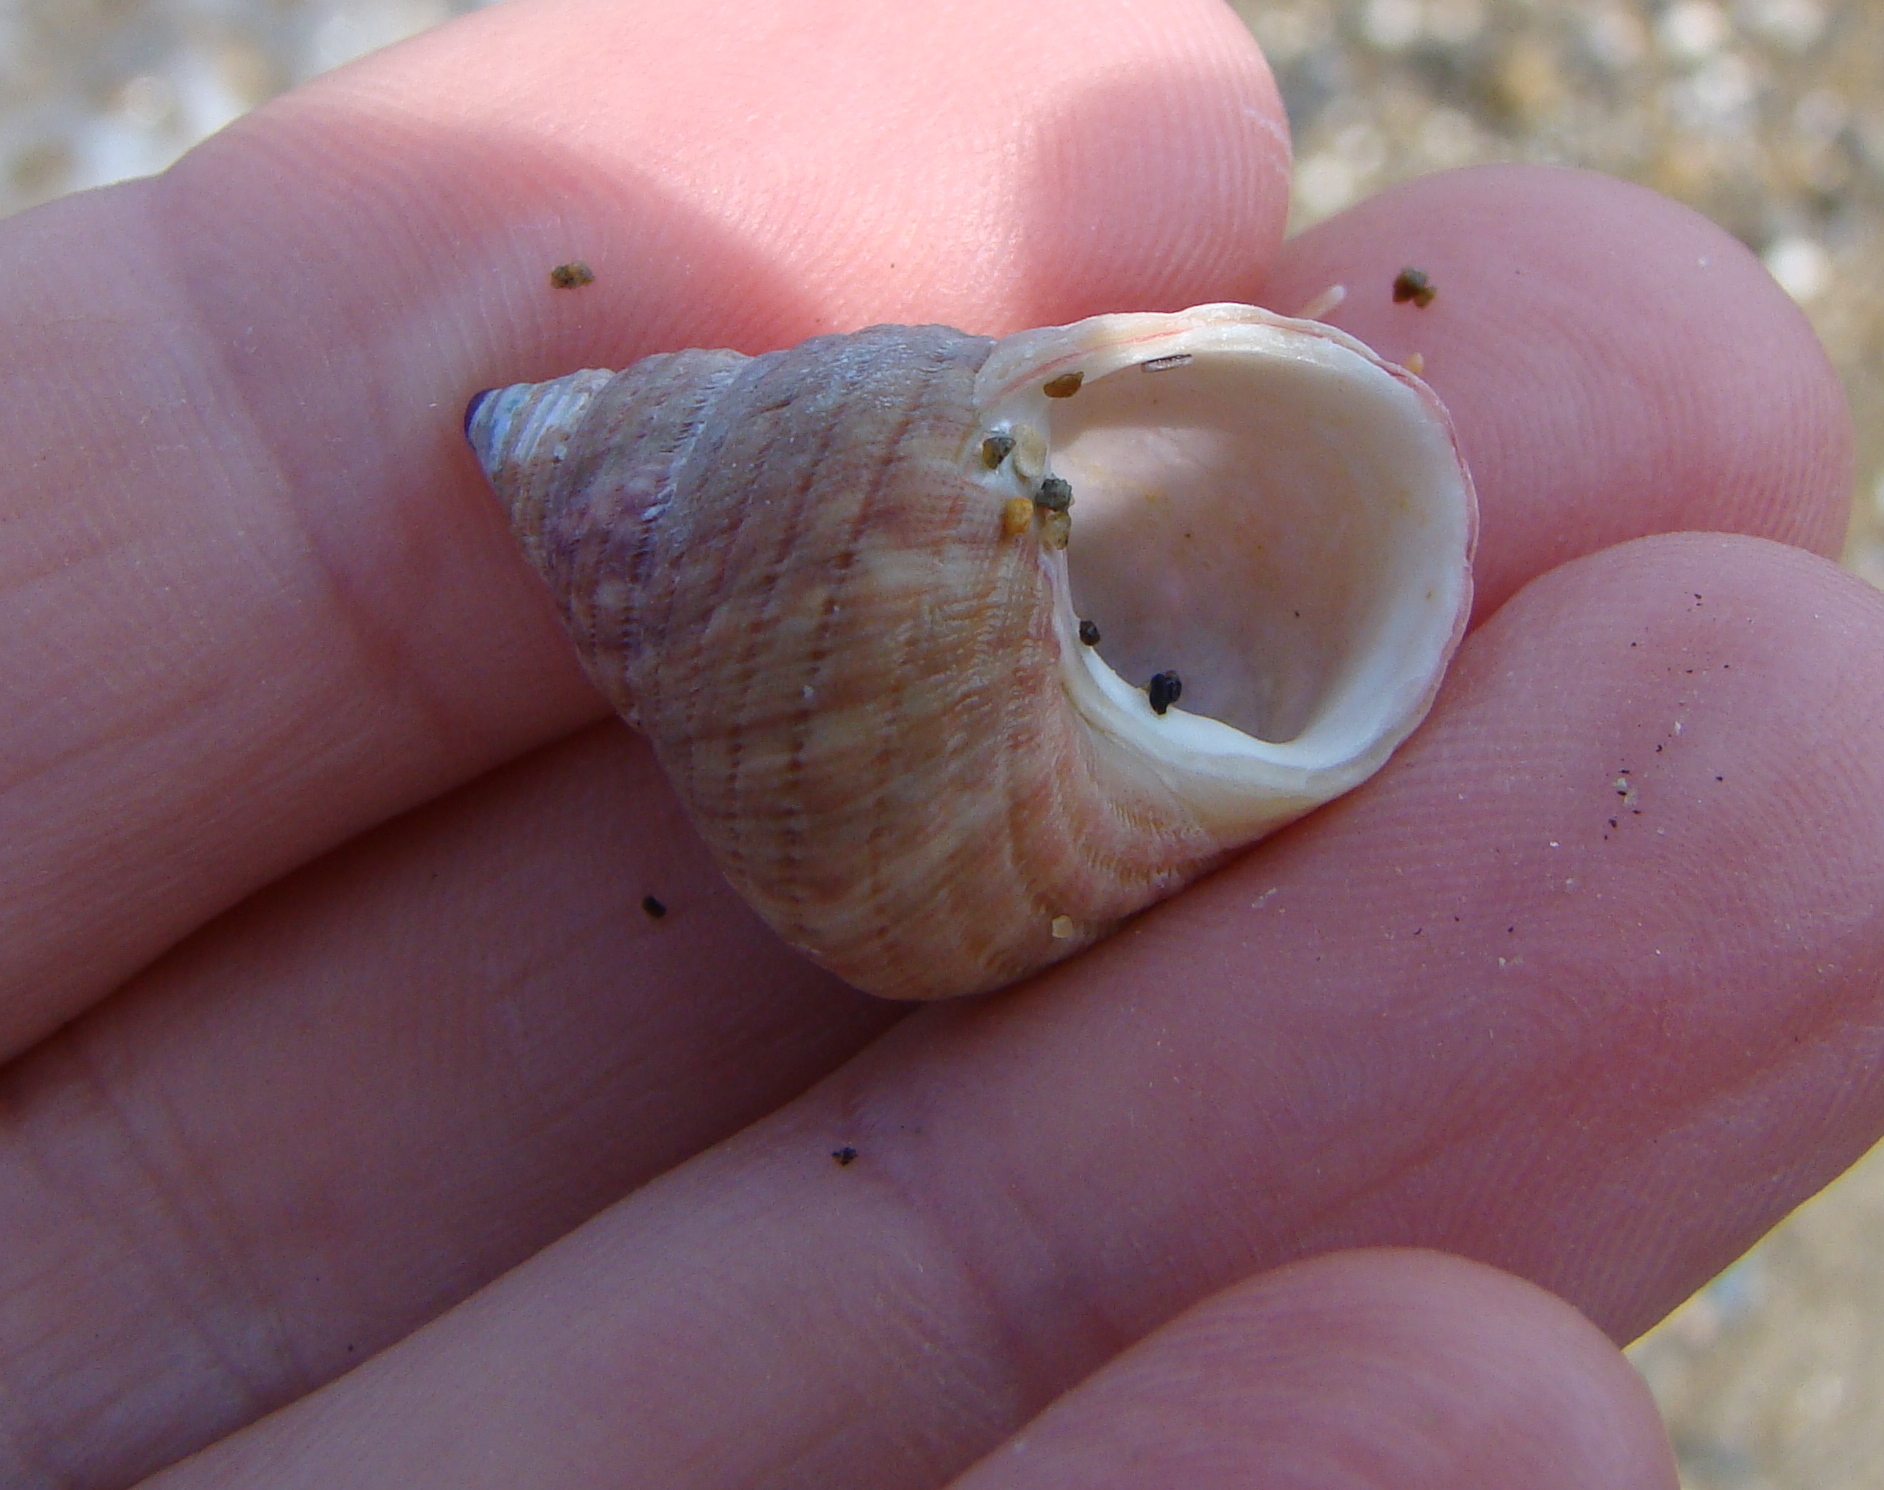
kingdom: Animalia
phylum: Mollusca
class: Gastropoda
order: Trochida
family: Trochidae
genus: Micrelenchus
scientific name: Micrelenchus purpureus
